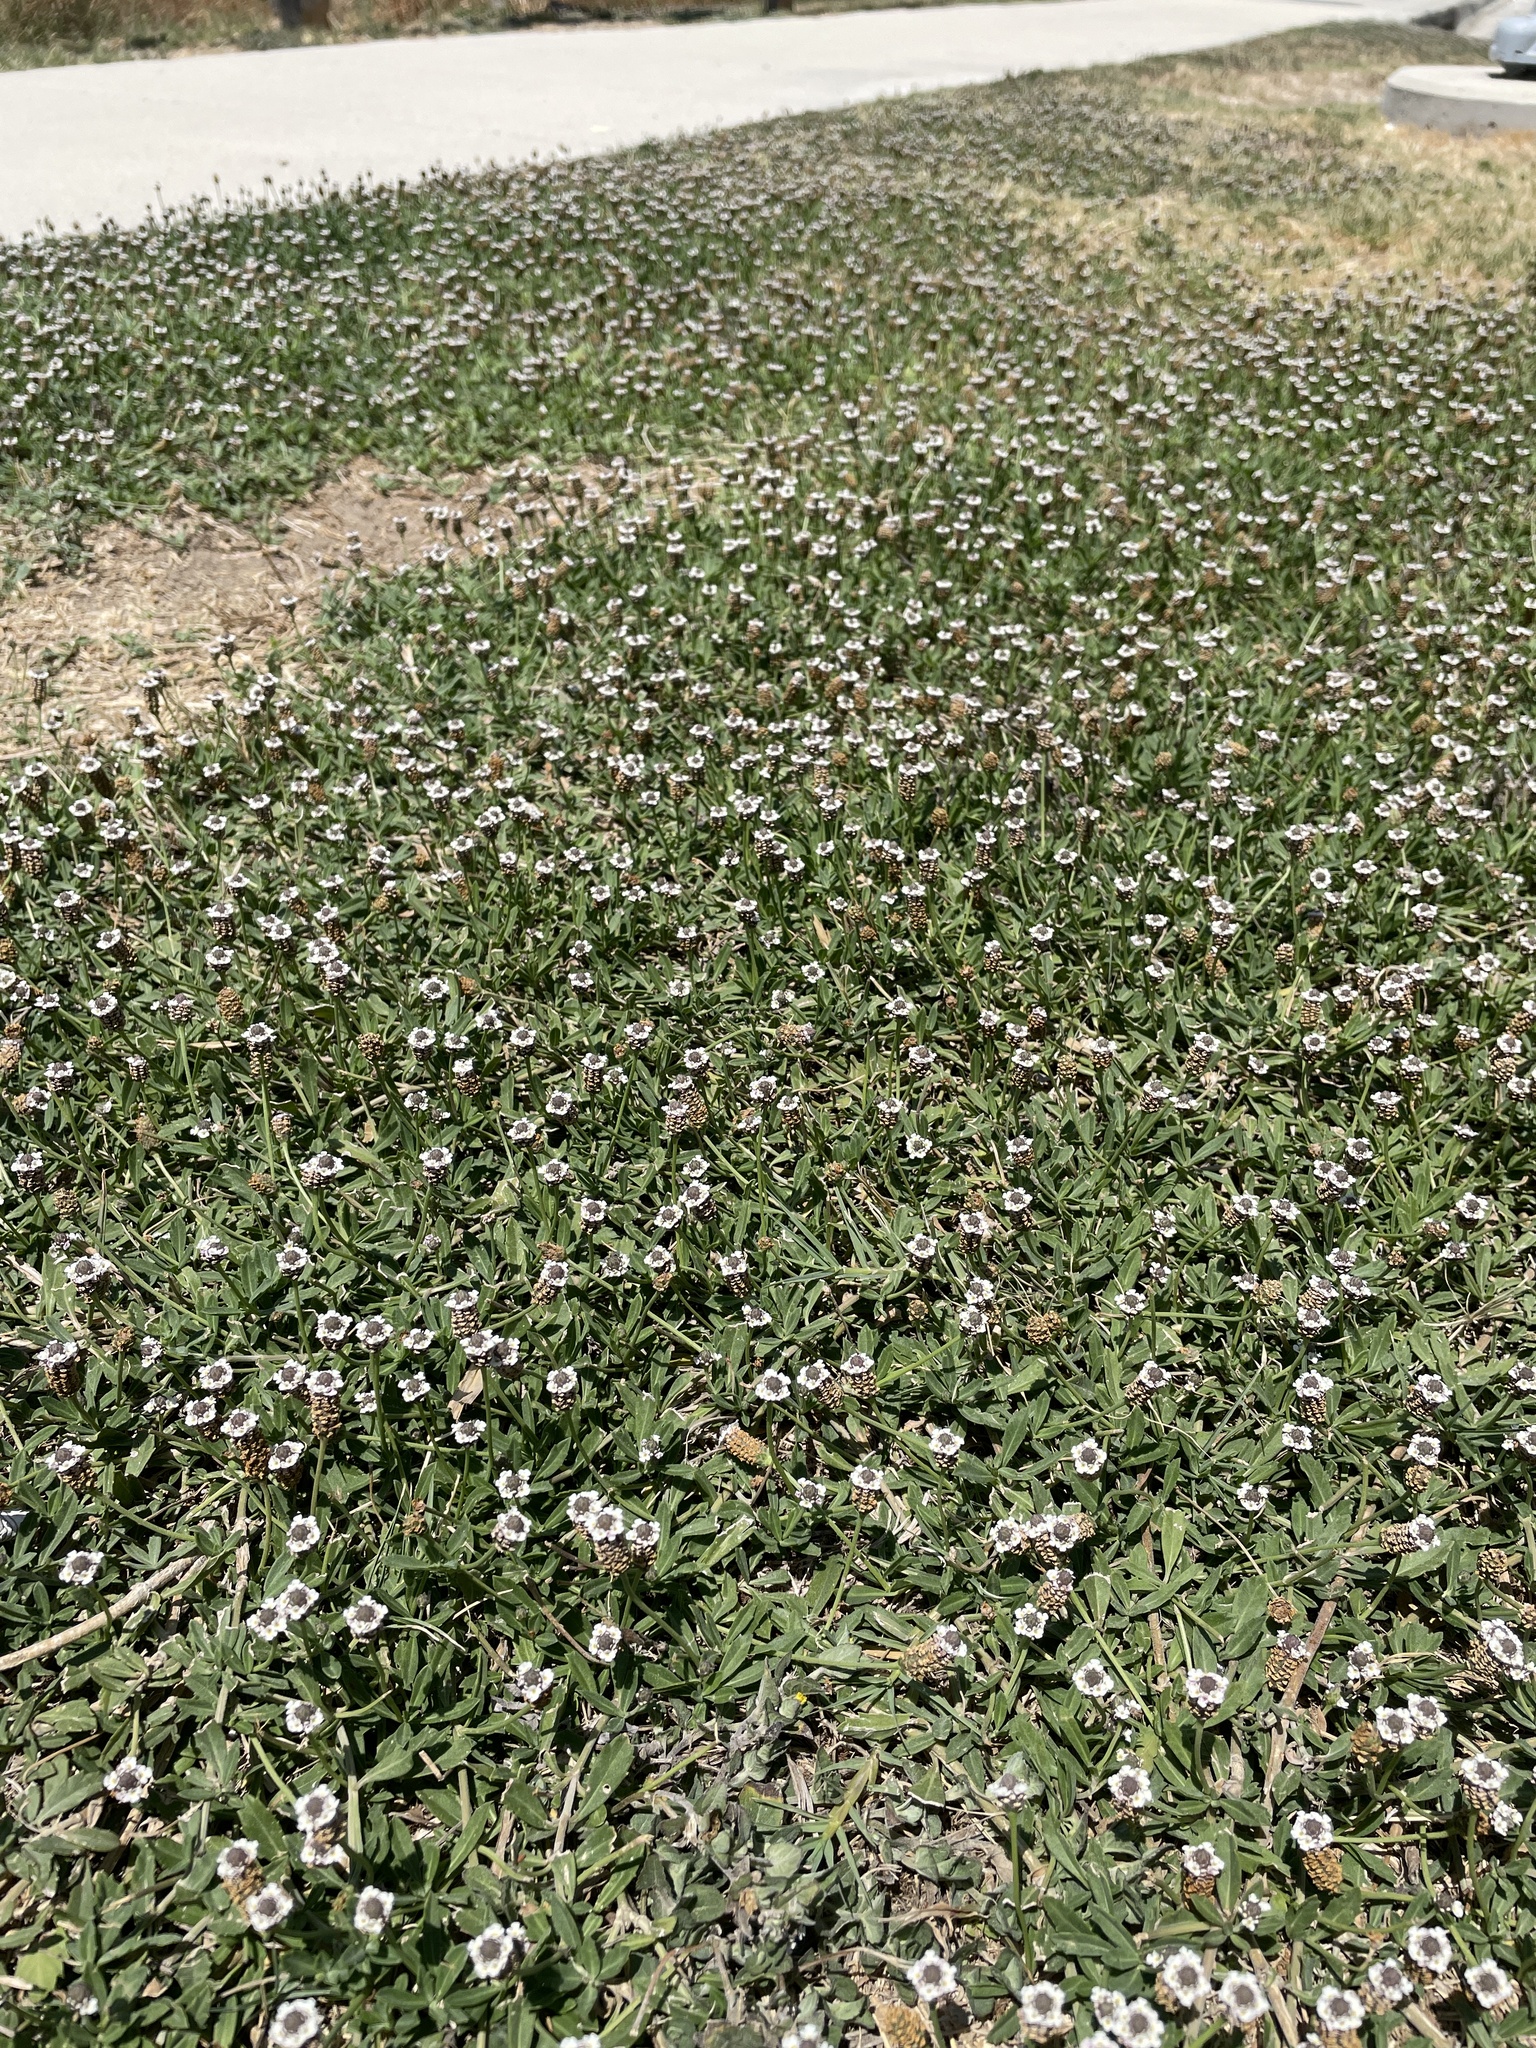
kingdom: Plantae
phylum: Tracheophyta
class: Magnoliopsida
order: Lamiales
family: Verbenaceae
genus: Phyla
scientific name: Phyla nodiflora
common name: Frogfruit
